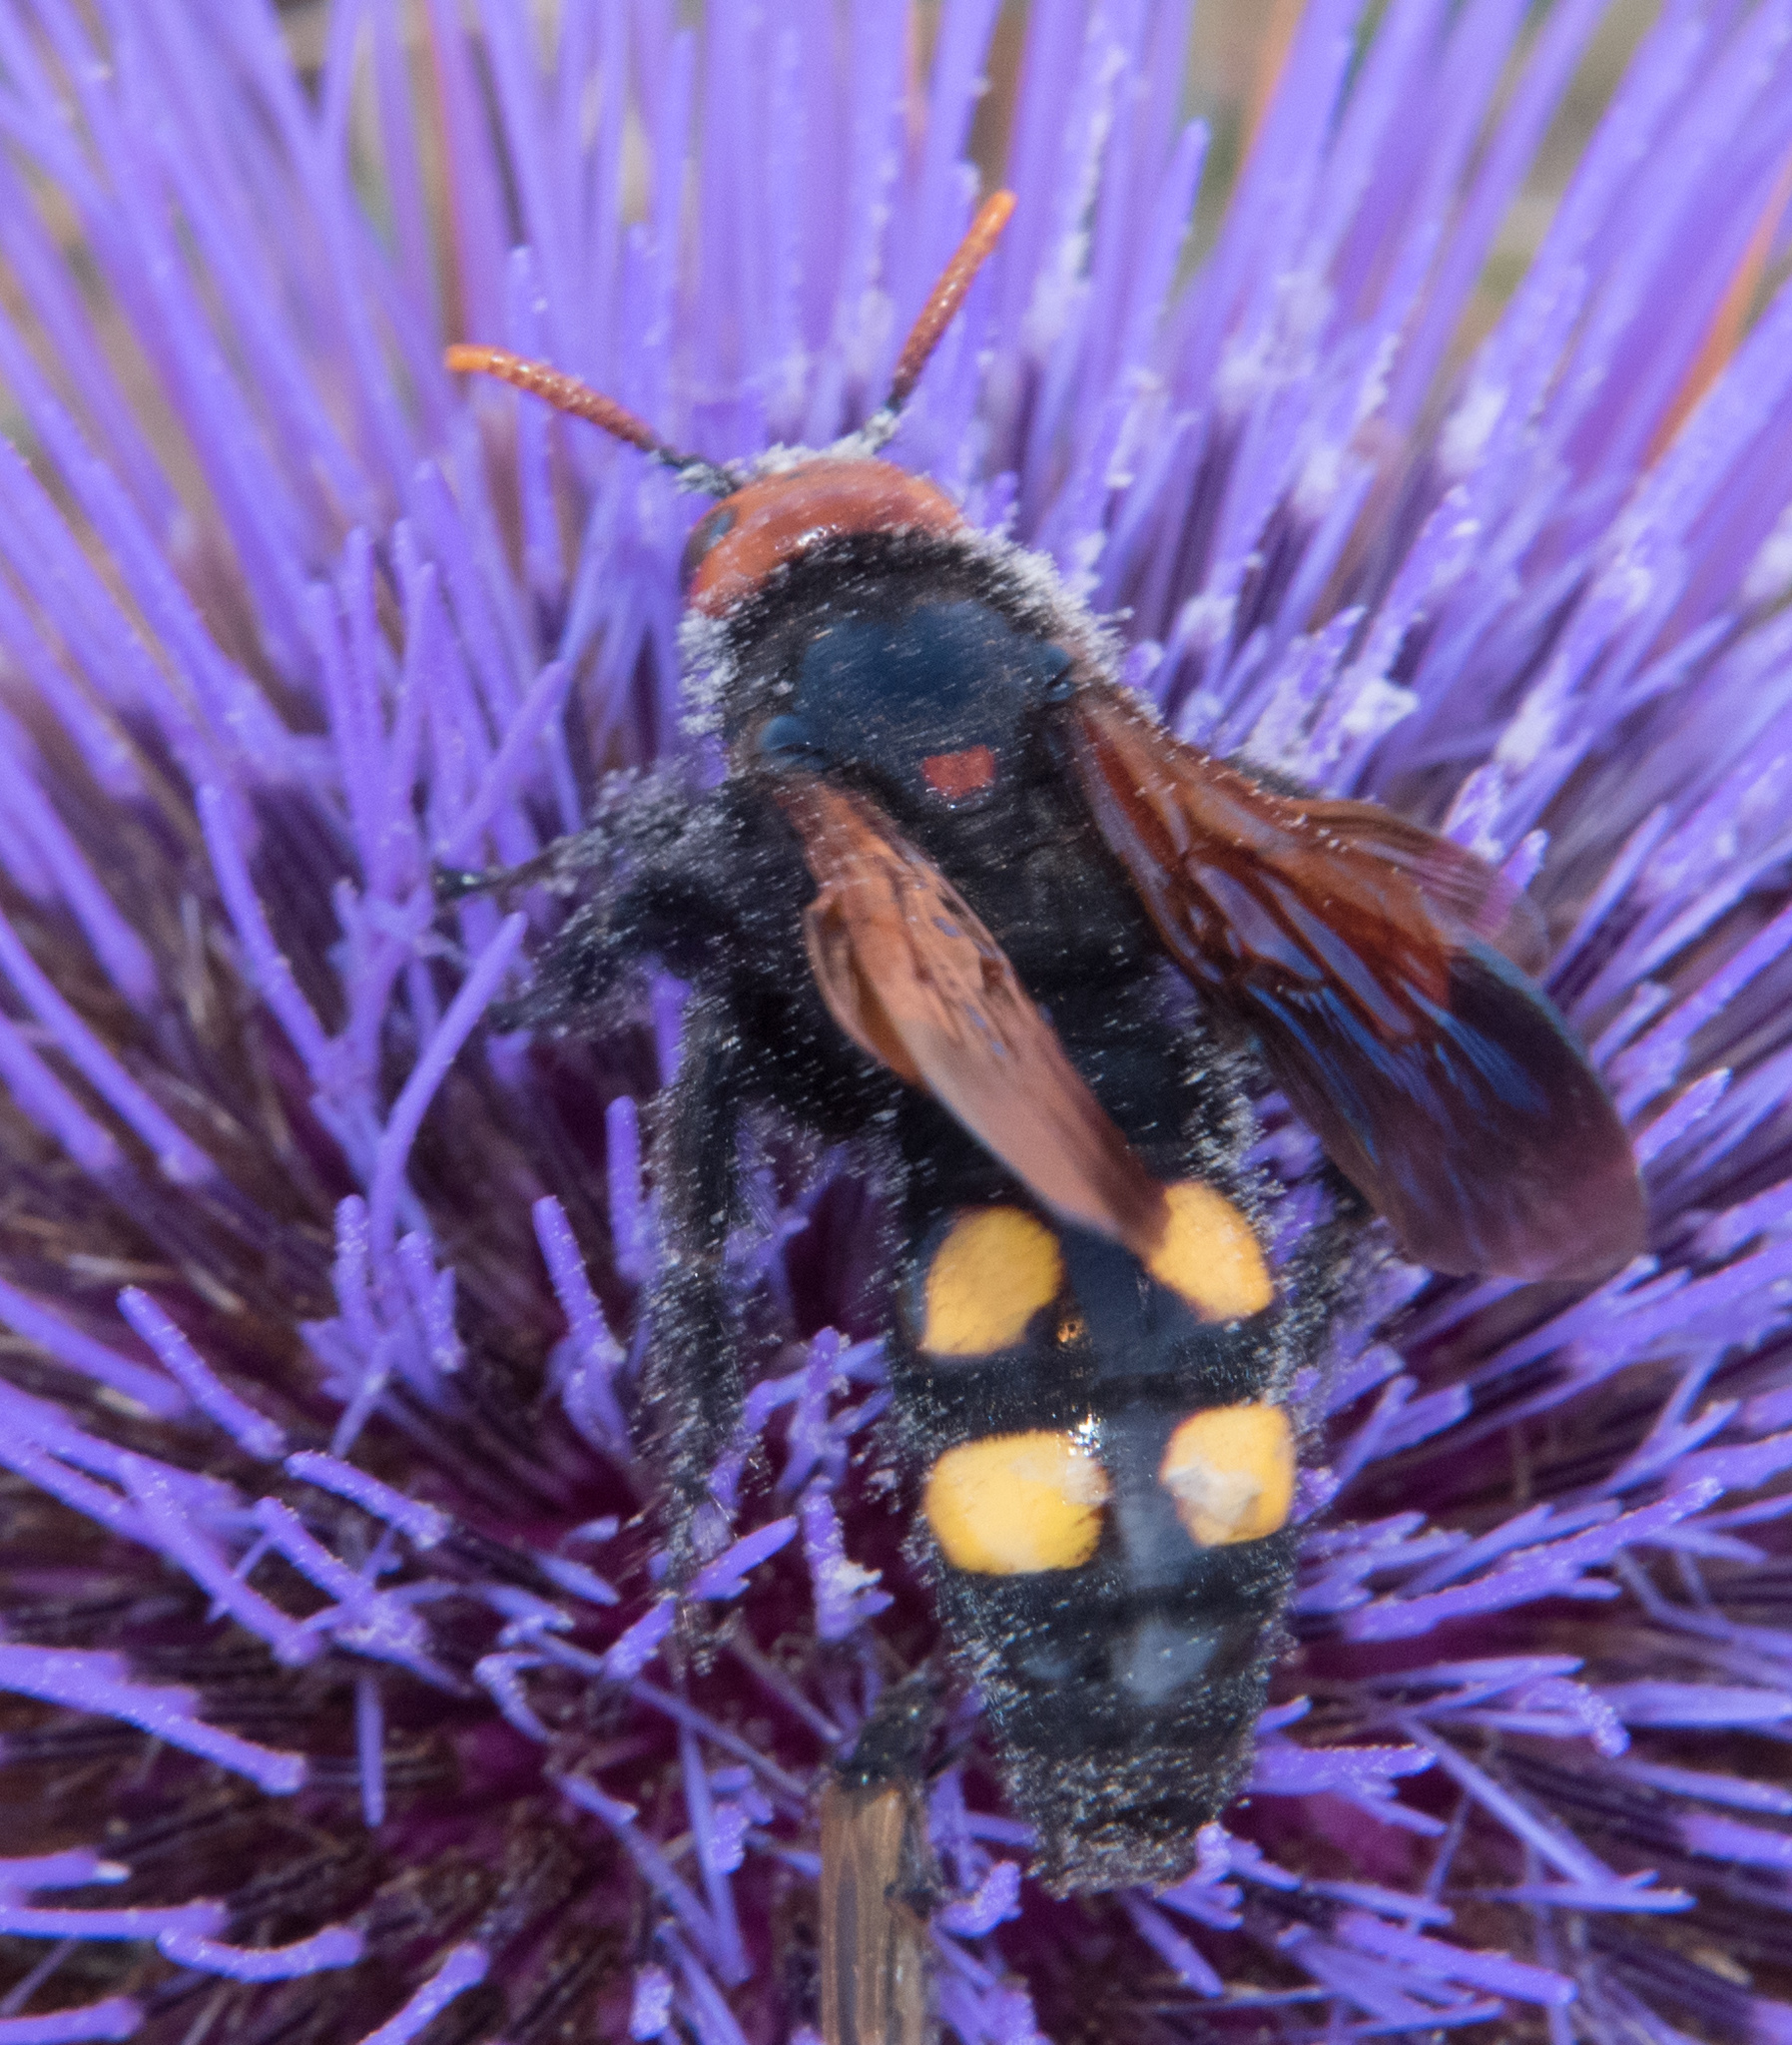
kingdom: Animalia
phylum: Arthropoda
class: Insecta
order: Hymenoptera
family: Scoliidae
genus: Megascolia
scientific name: Megascolia bidens
